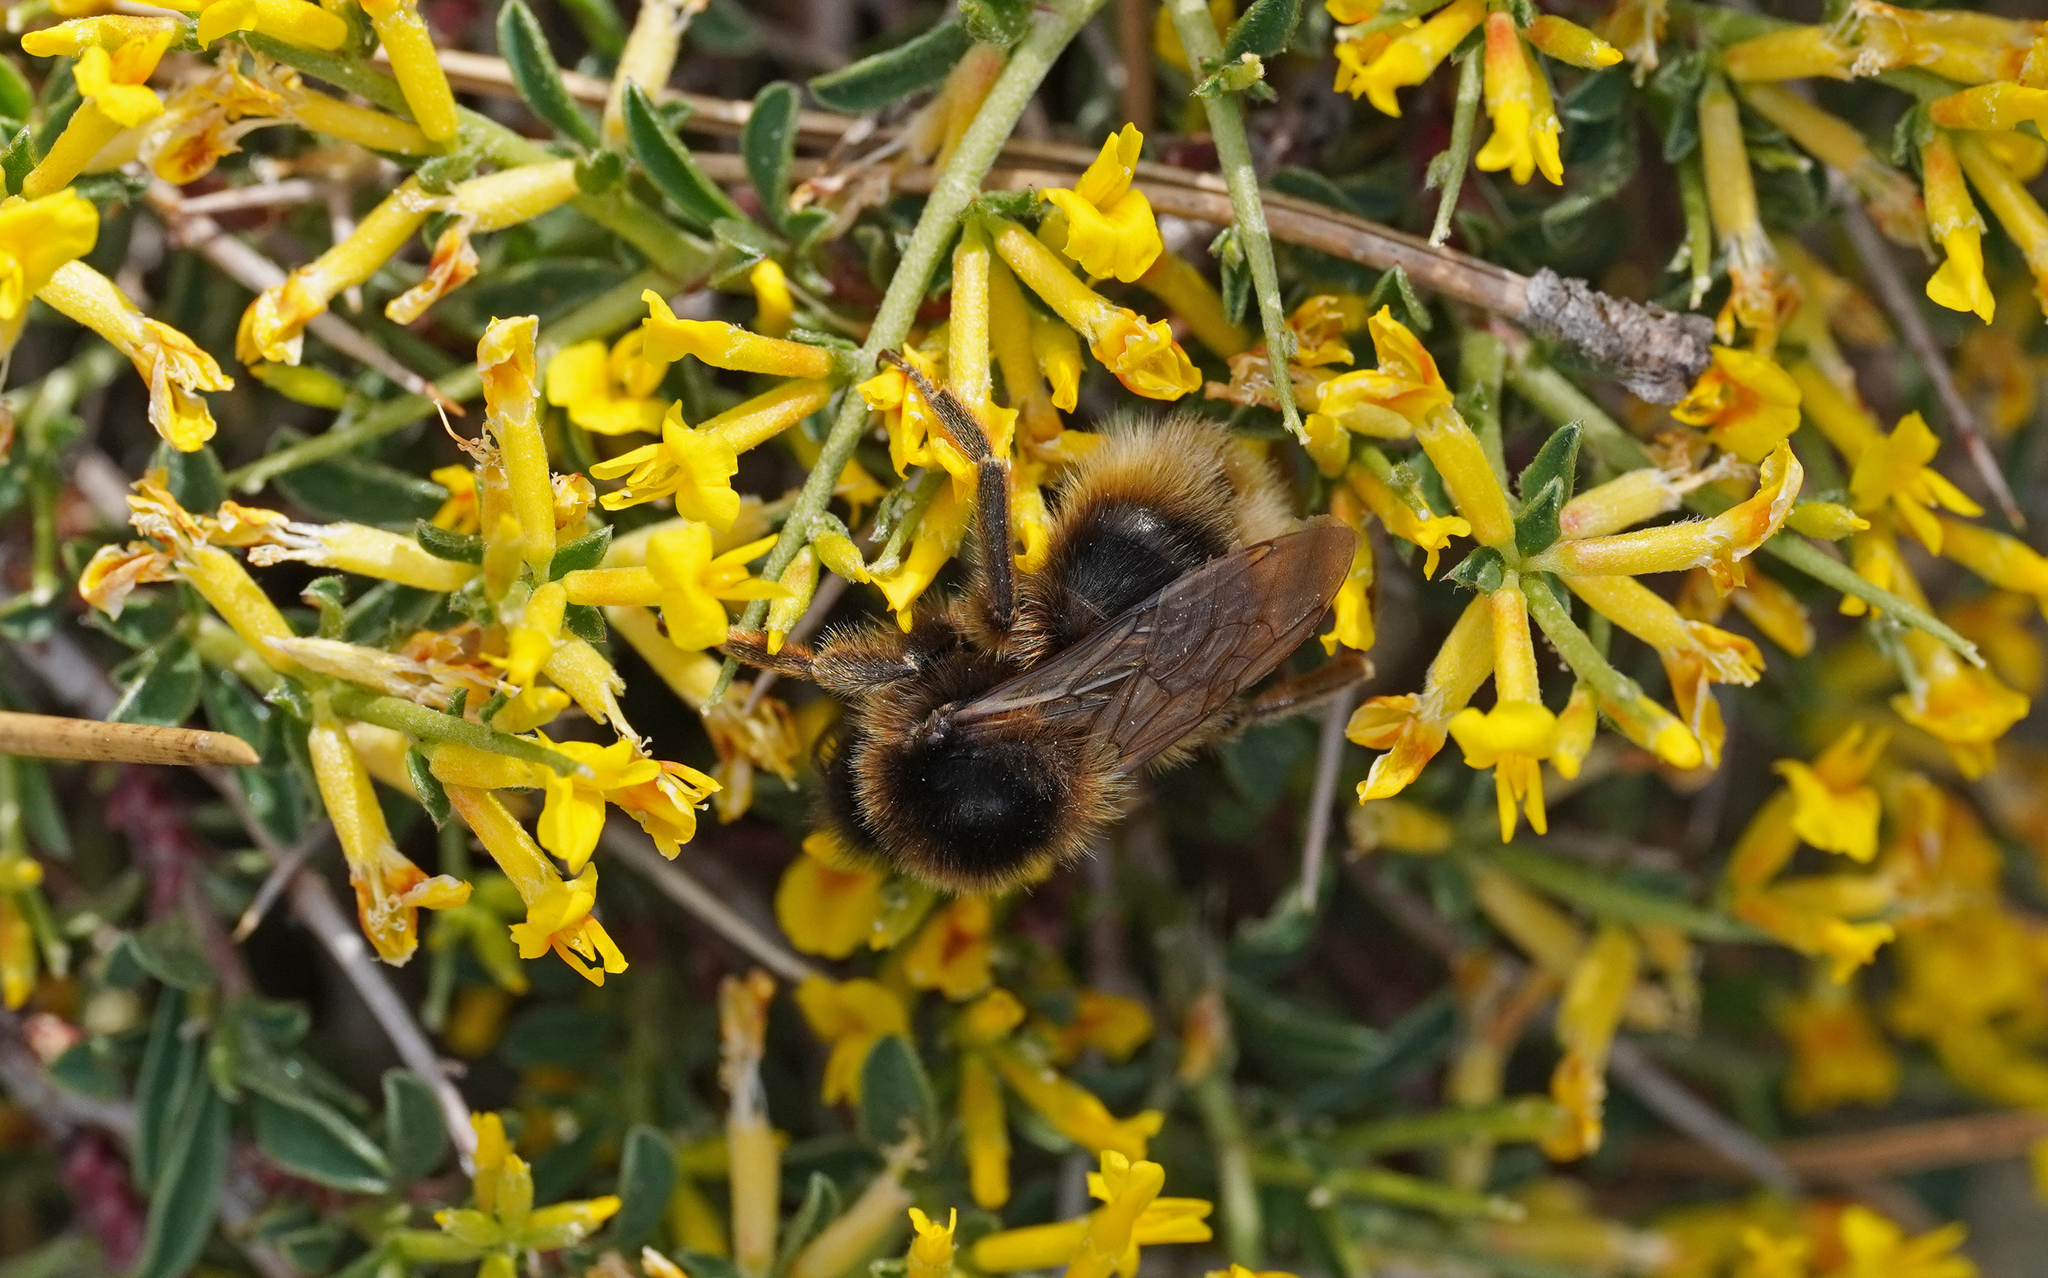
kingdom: Animalia
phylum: Arthropoda
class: Insecta
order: Hymenoptera
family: Apidae
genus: Bombus
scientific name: Bombus perezi
